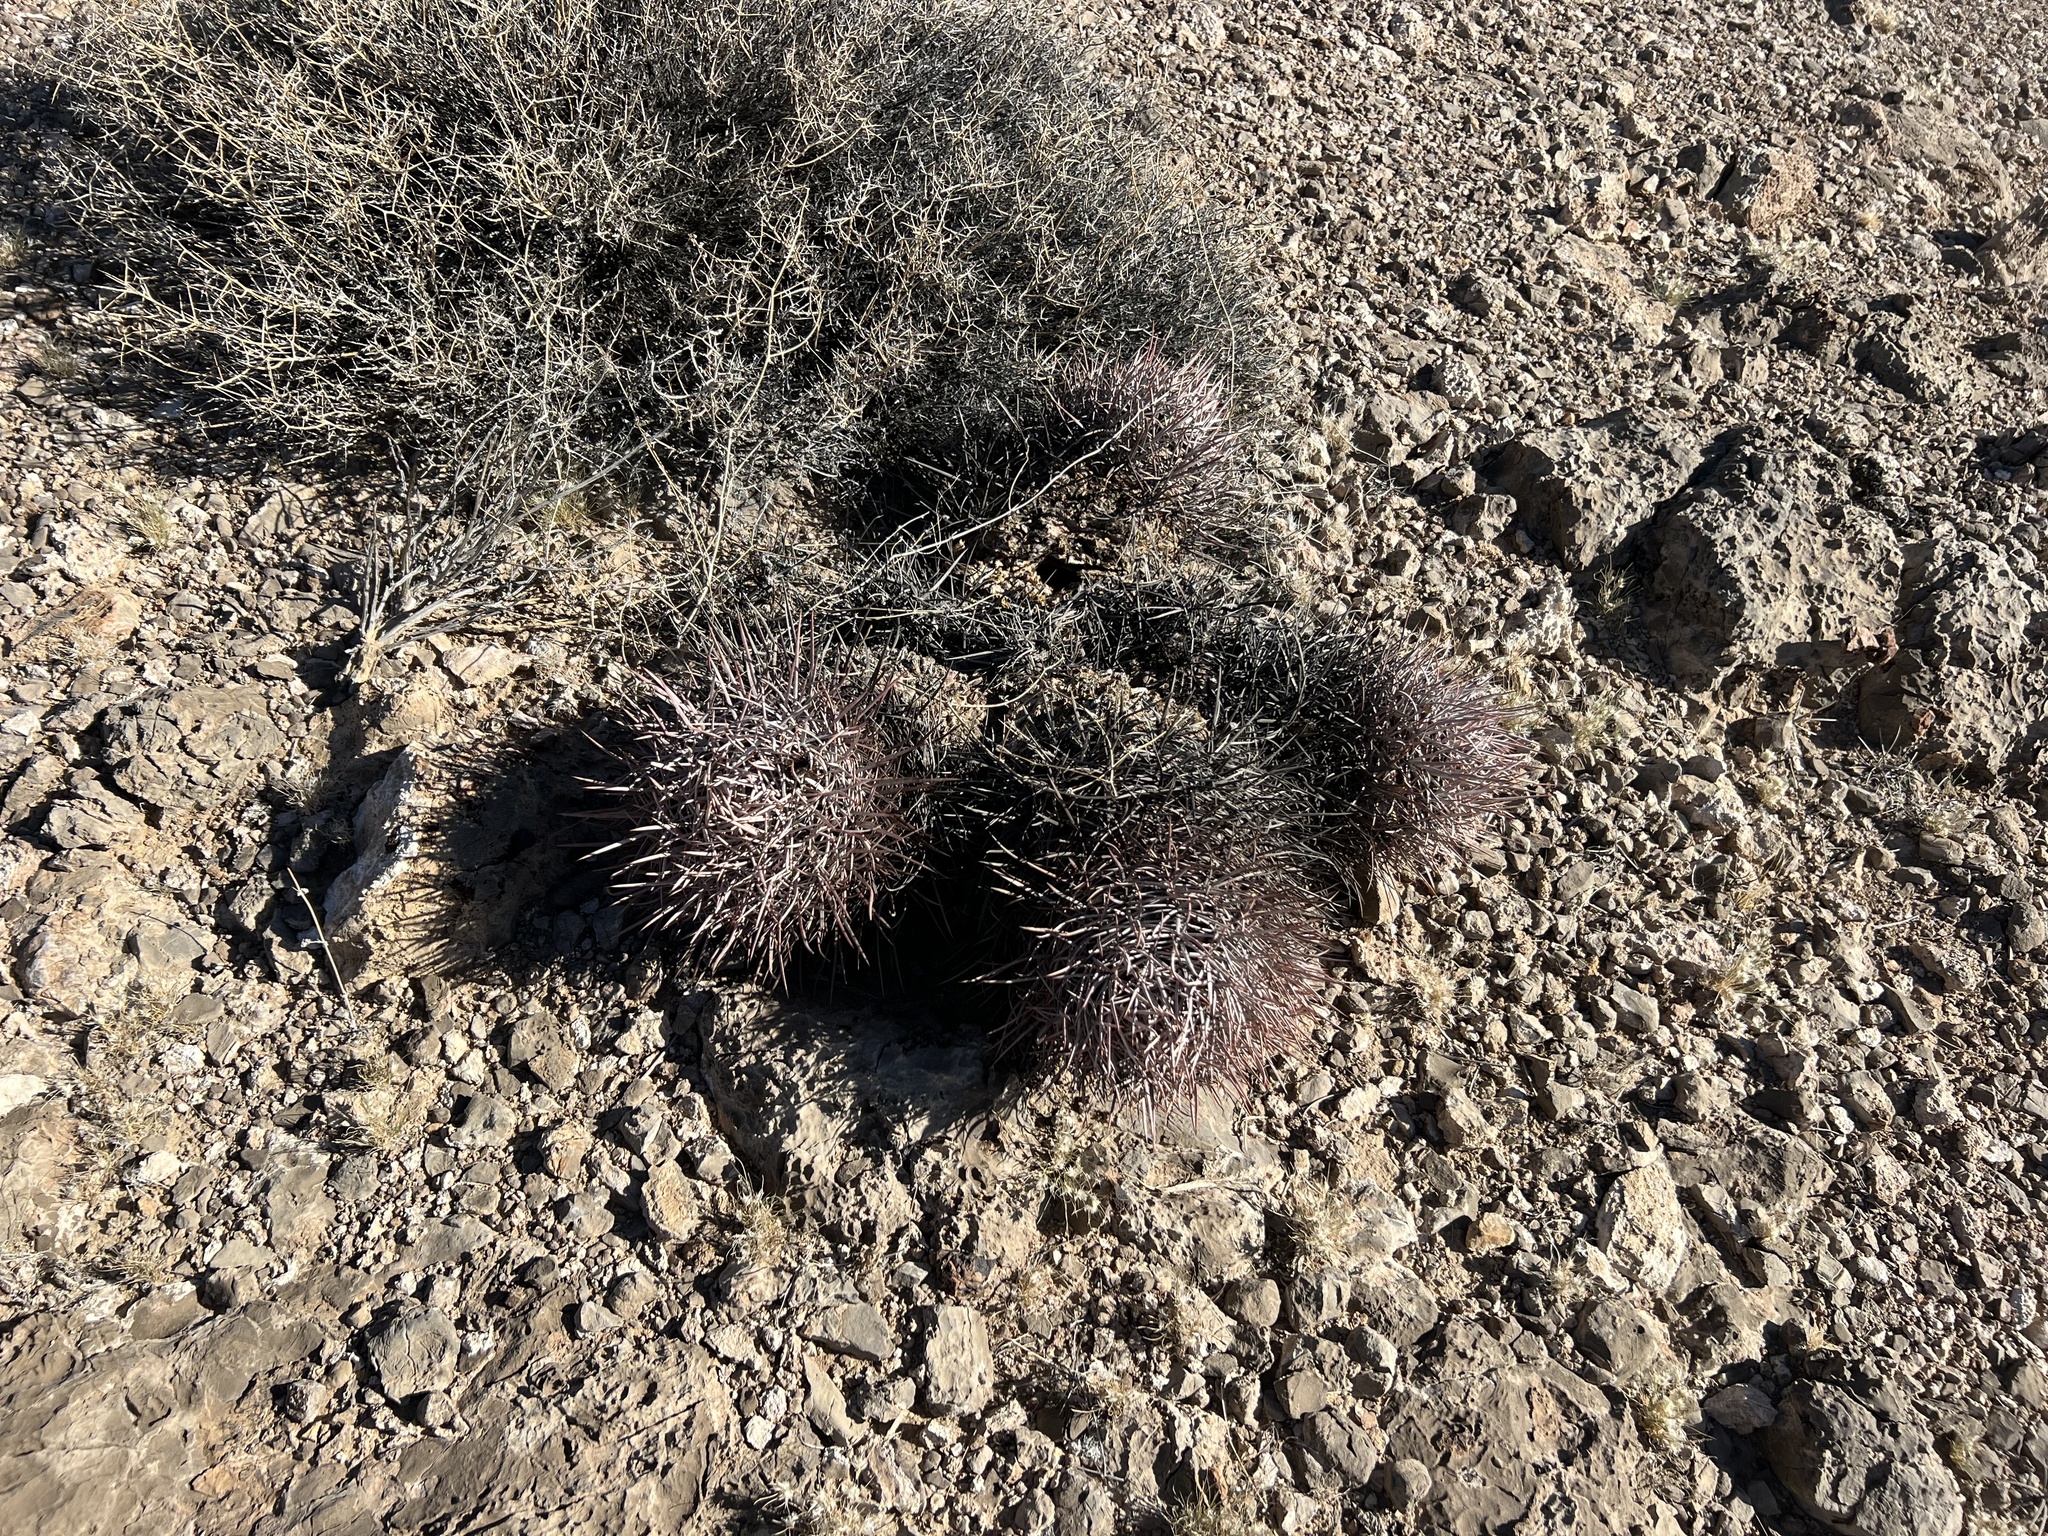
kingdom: Plantae
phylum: Tracheophyta
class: Magnoliopsida
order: Caryophyllales
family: Cactaceae
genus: Echinocactus
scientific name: Echinocactus polycephalus
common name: Cottontop cactus
